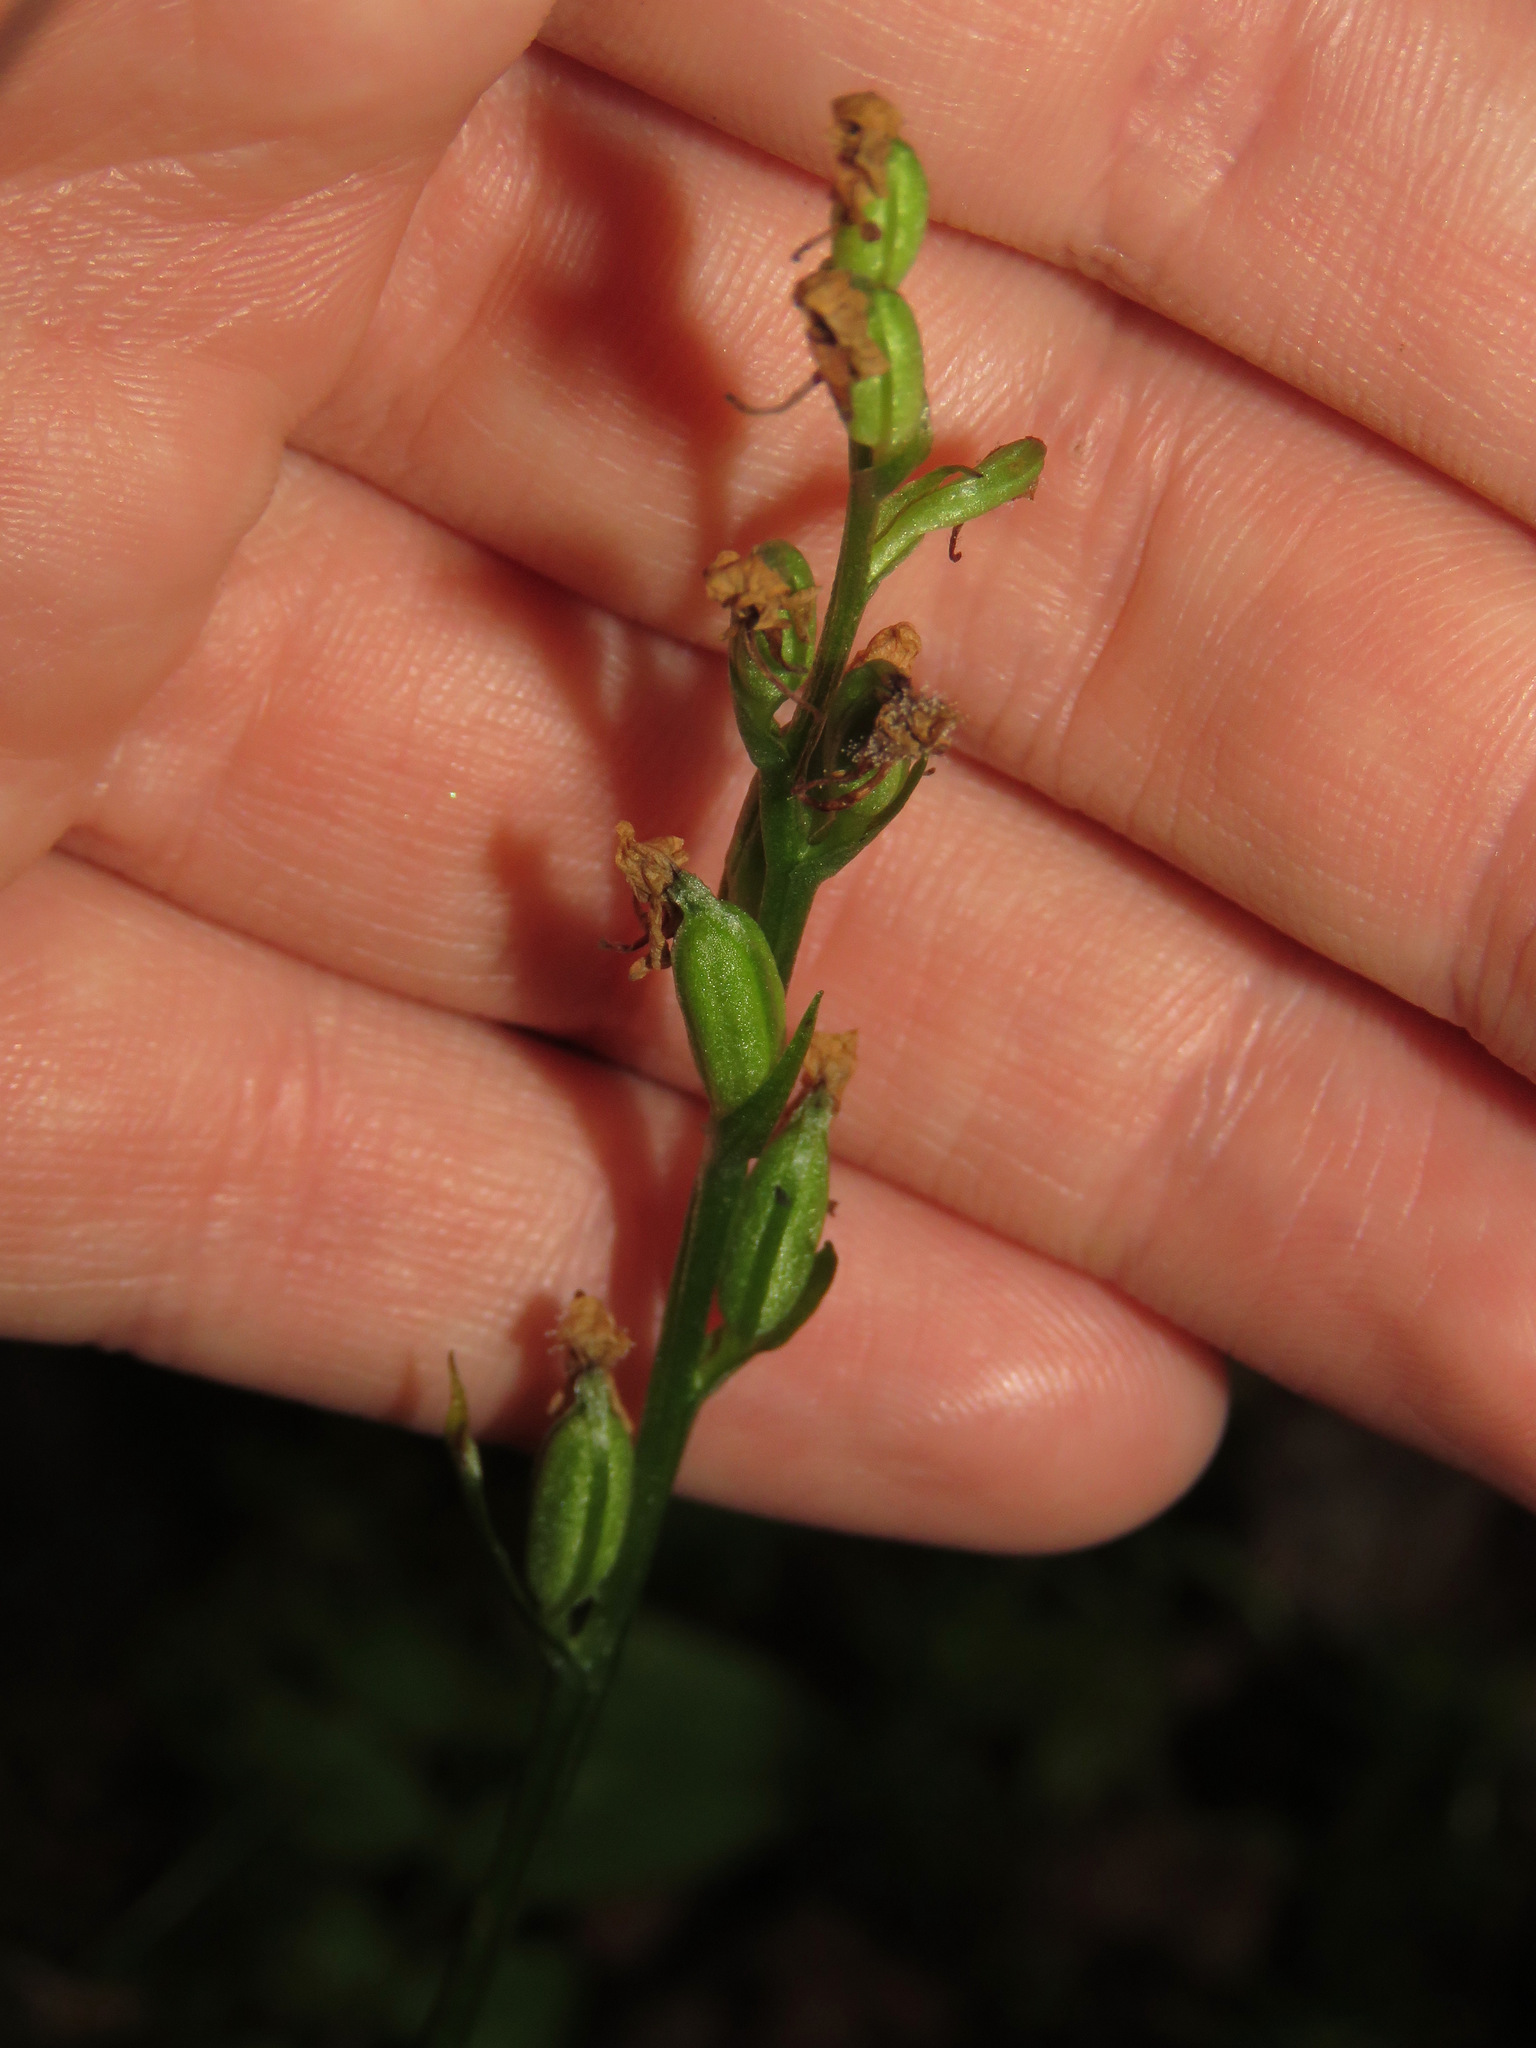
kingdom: Plantae
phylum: Tracheophyta
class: Liliopsida
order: Asparagales
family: Orchidaceae
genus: Platanthera
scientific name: Platanthera obtusata
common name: Blunt bog orchid
